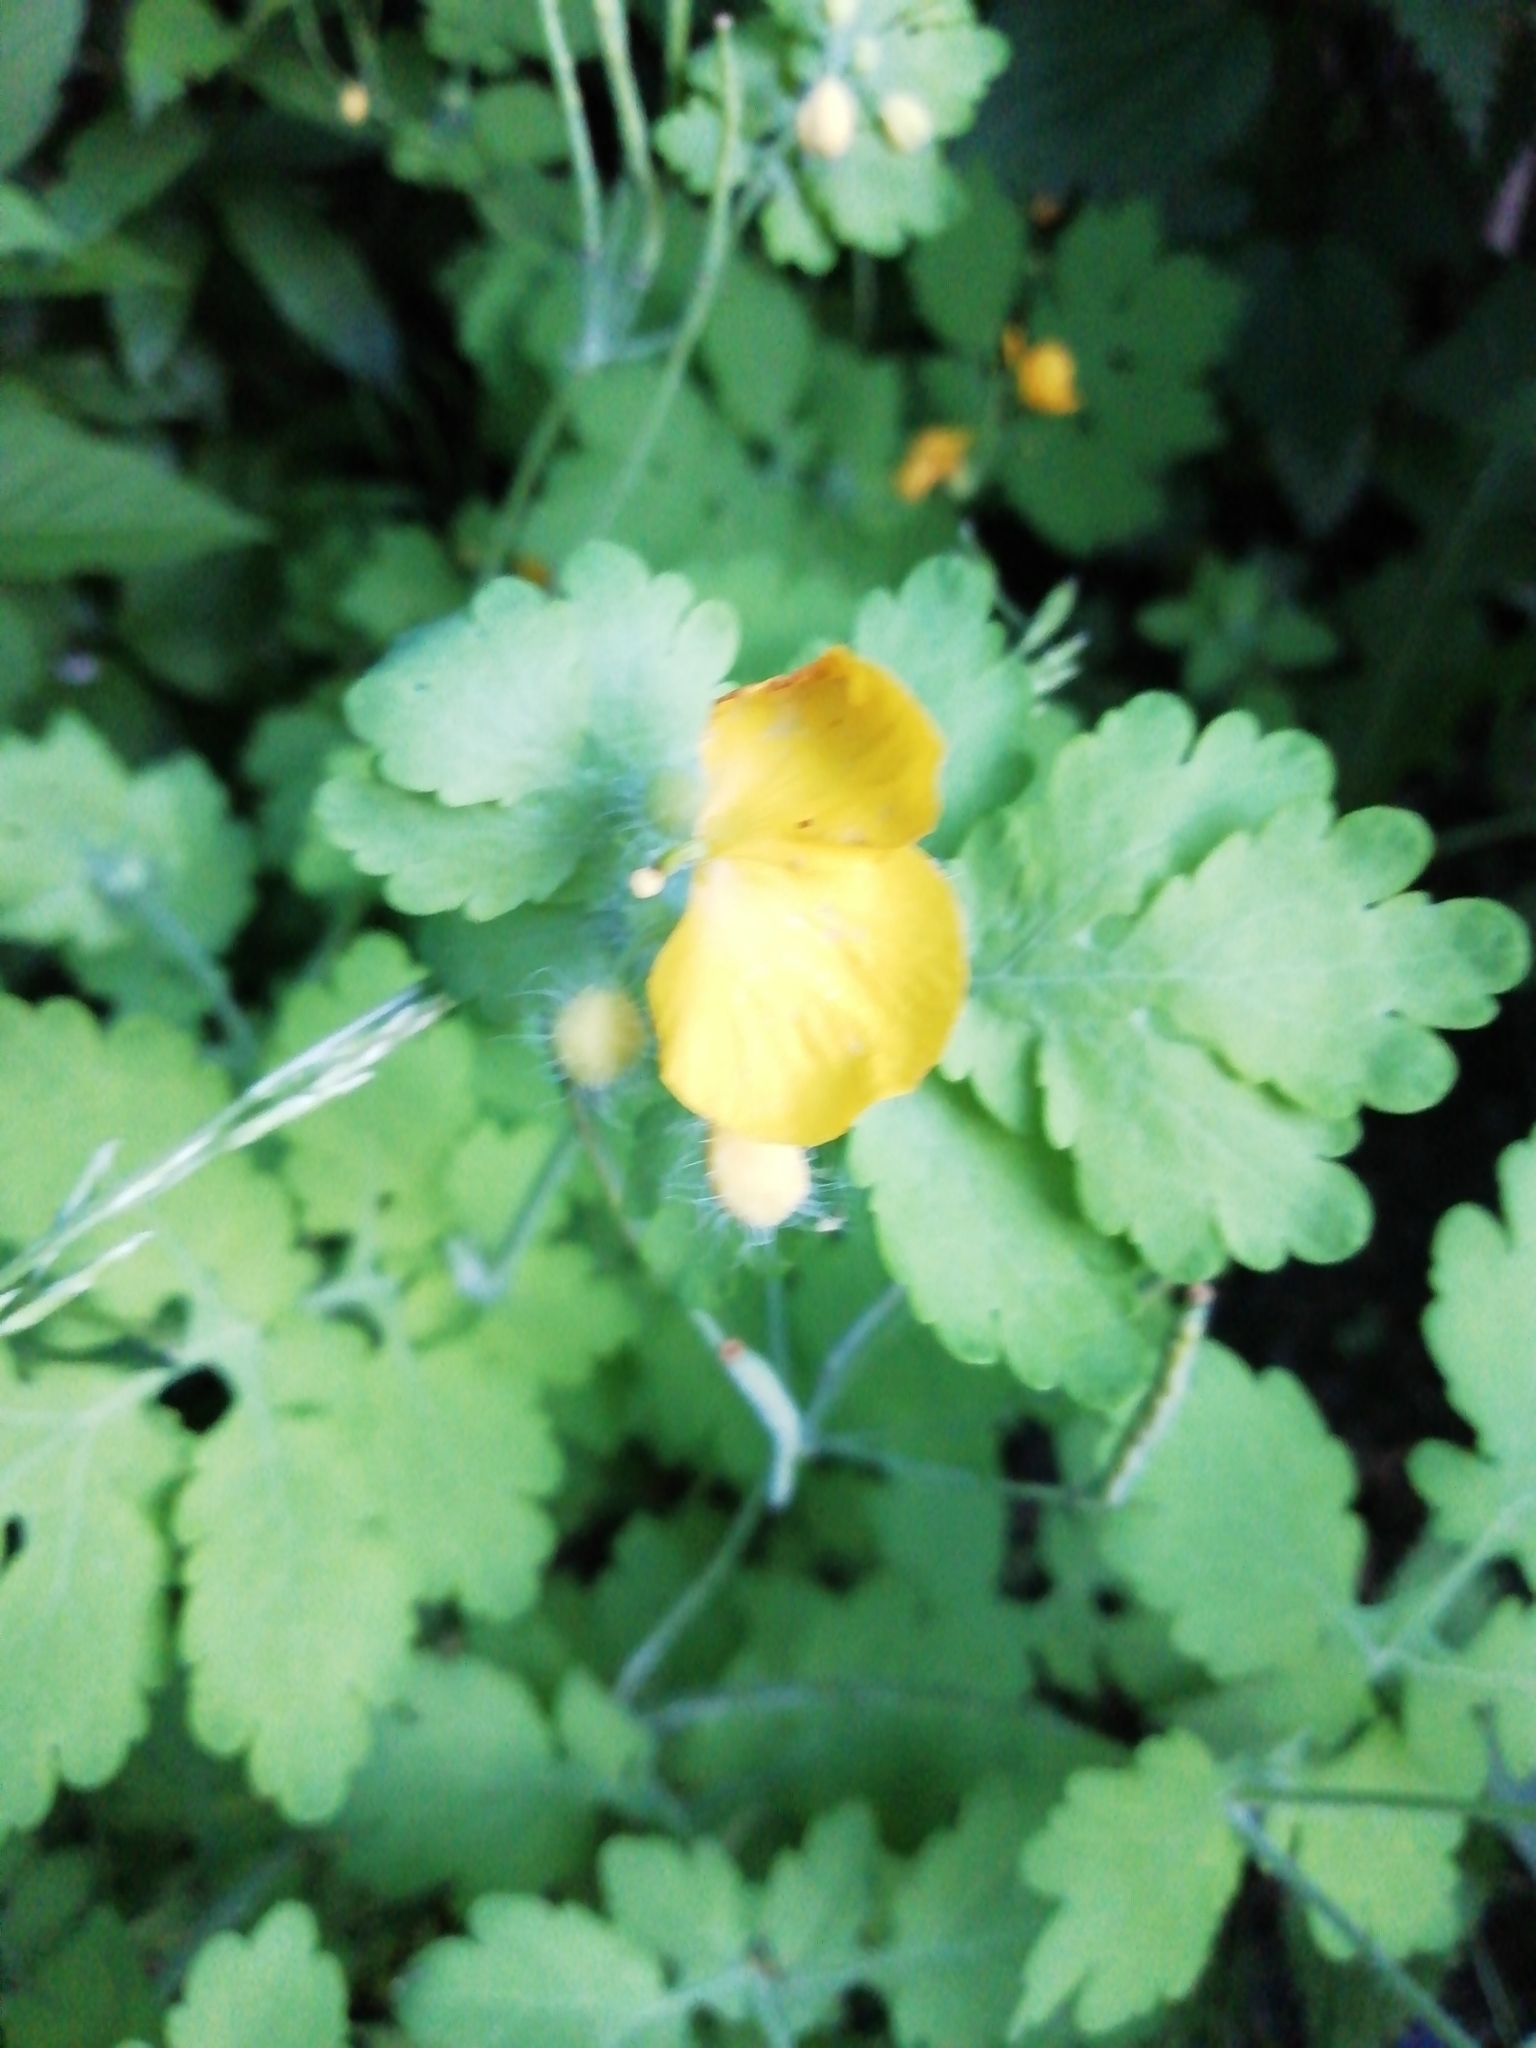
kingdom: Plantae
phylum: Tracheophyta
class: Magnoliopsida
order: Ranunculales
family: Papaveraceae
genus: Chelidonium
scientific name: Chelidonium majus
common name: Greater celandine
